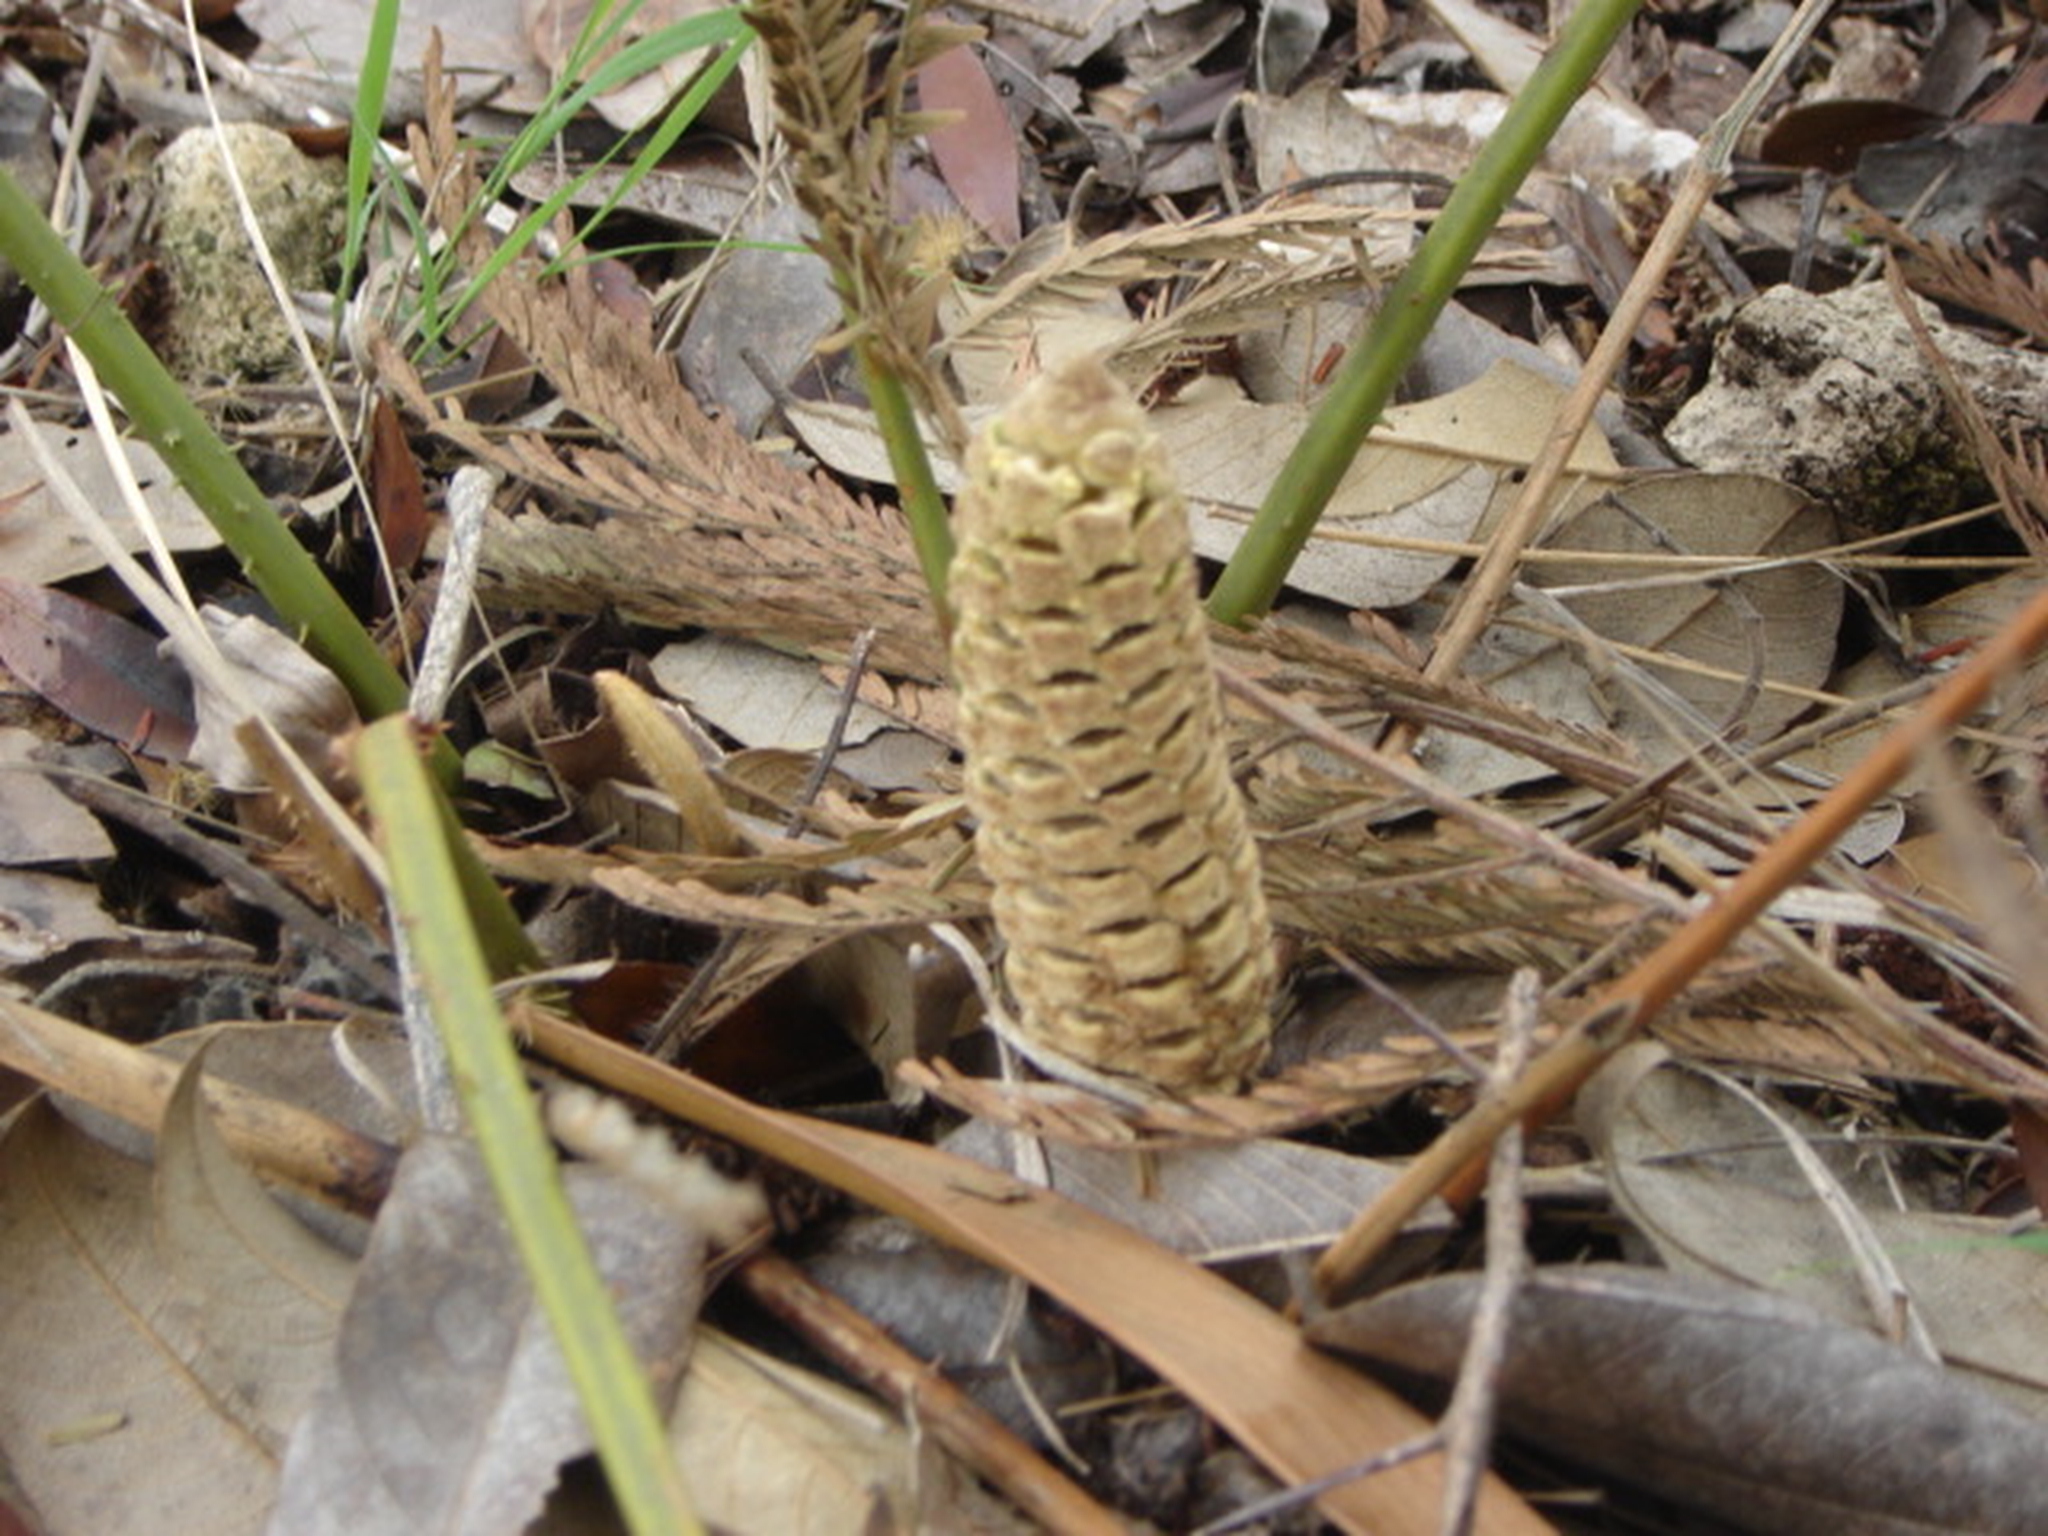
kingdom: Plantae
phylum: Tracheophyta
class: Cycadopsida
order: Cycadales
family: Zamiaceae
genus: Zamia
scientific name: Zamia loddigesii
